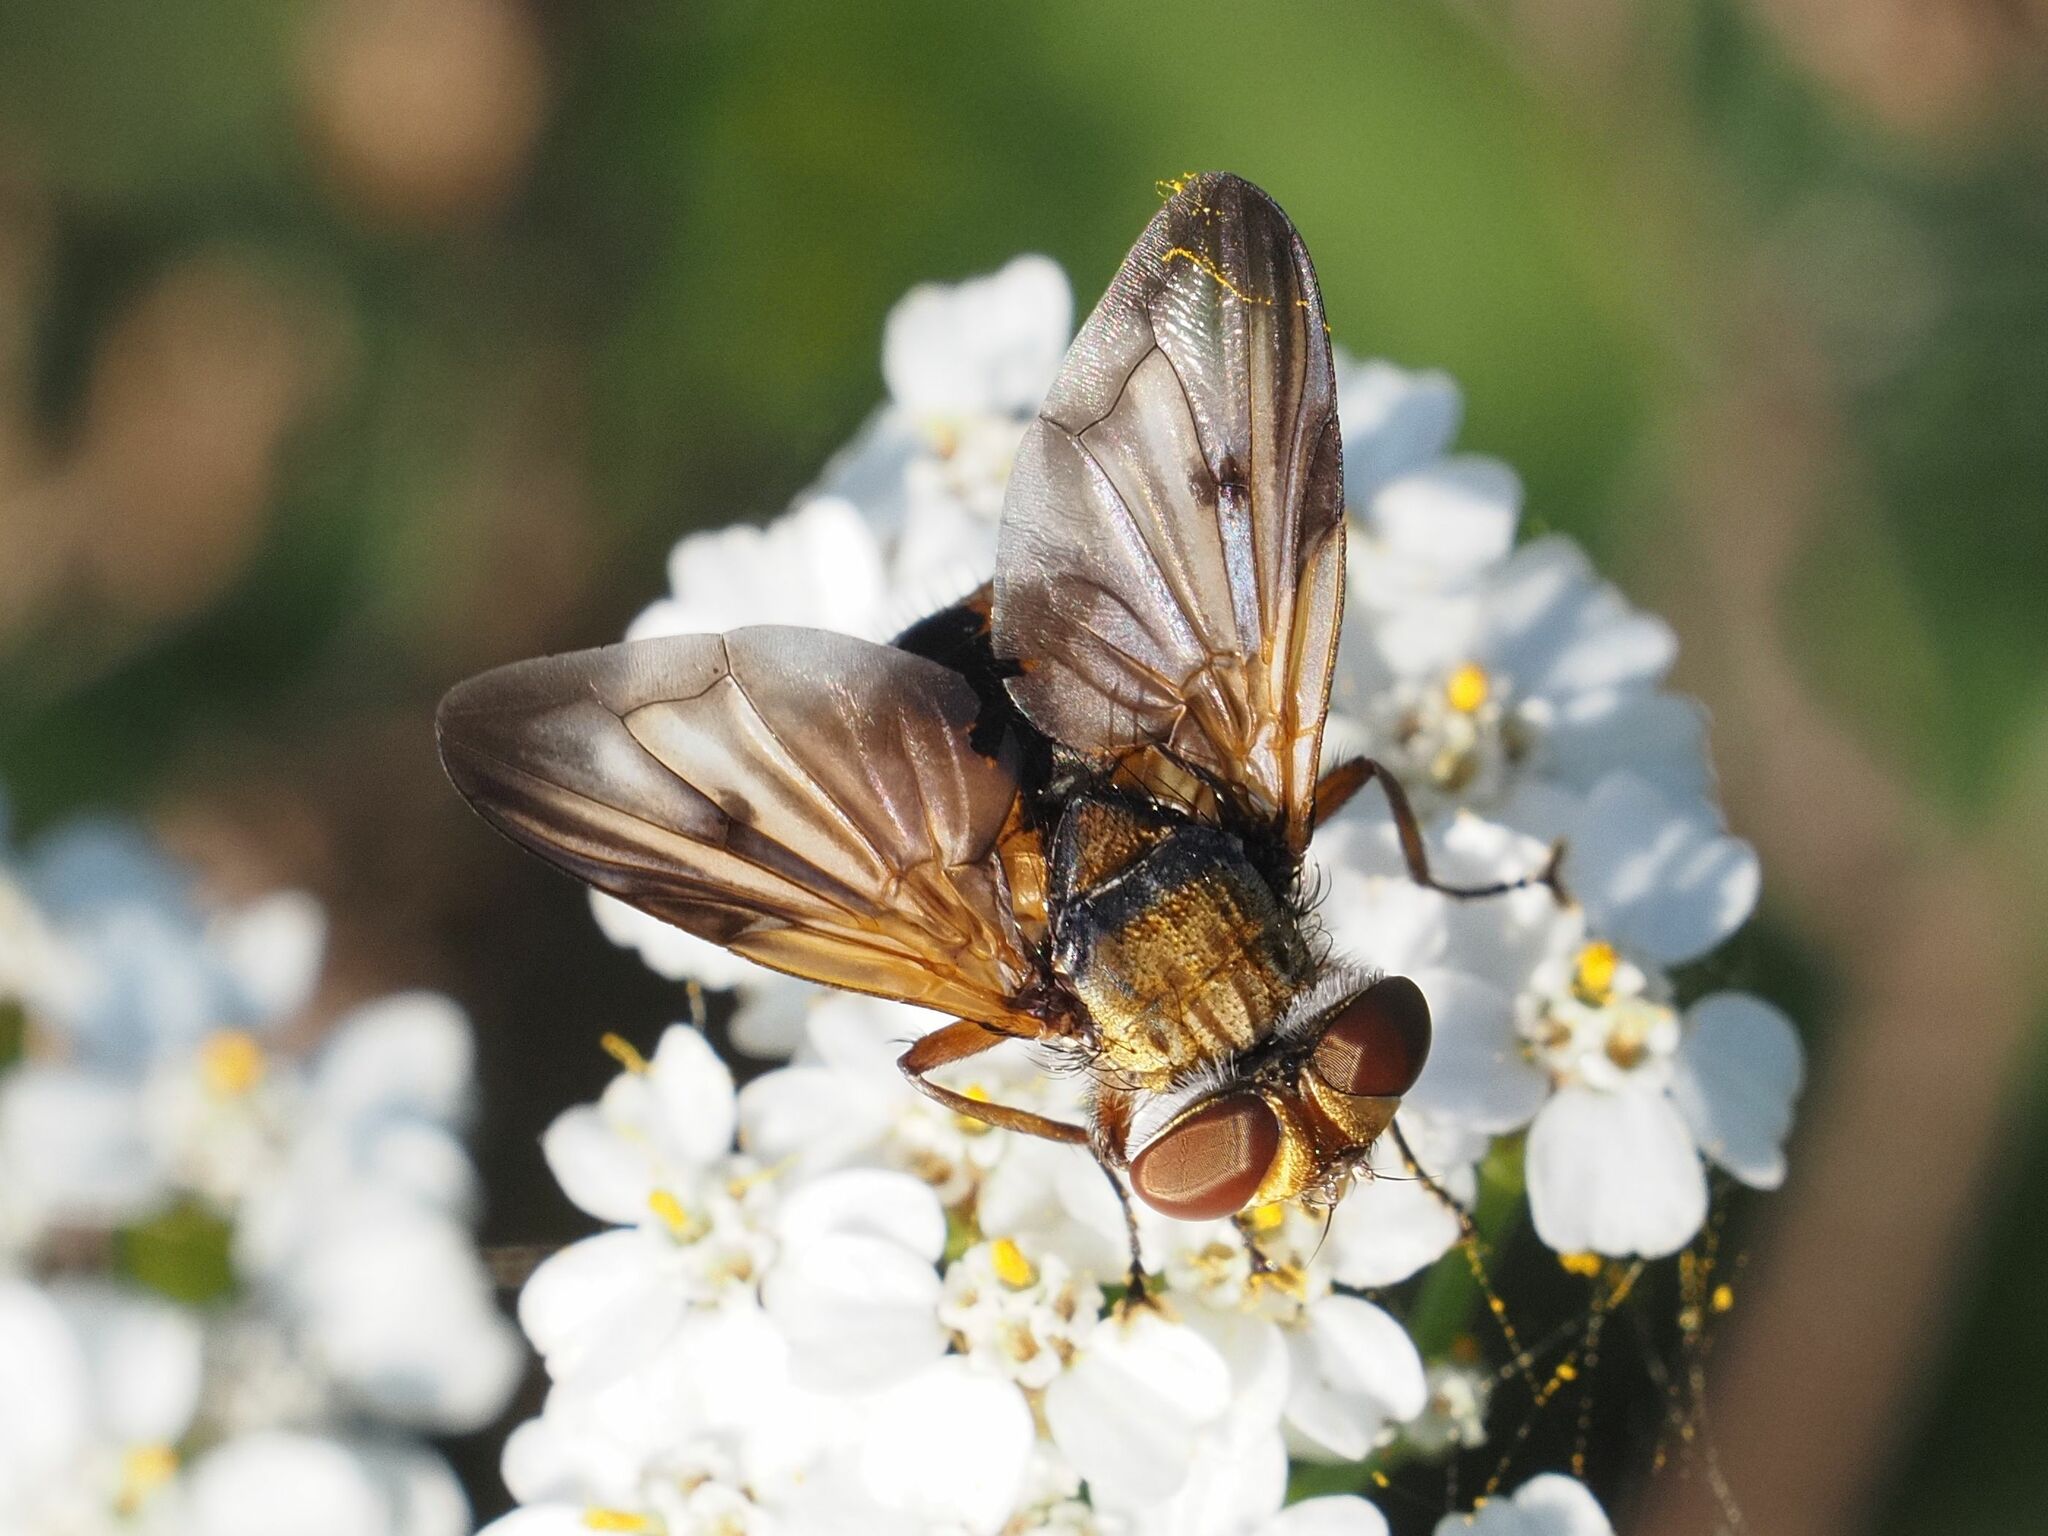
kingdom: Animalia
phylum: Arthropoda
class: Insecta
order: Diptera
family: Tachinidae
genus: Ectophasia
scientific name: Ectophasia crassipennis
